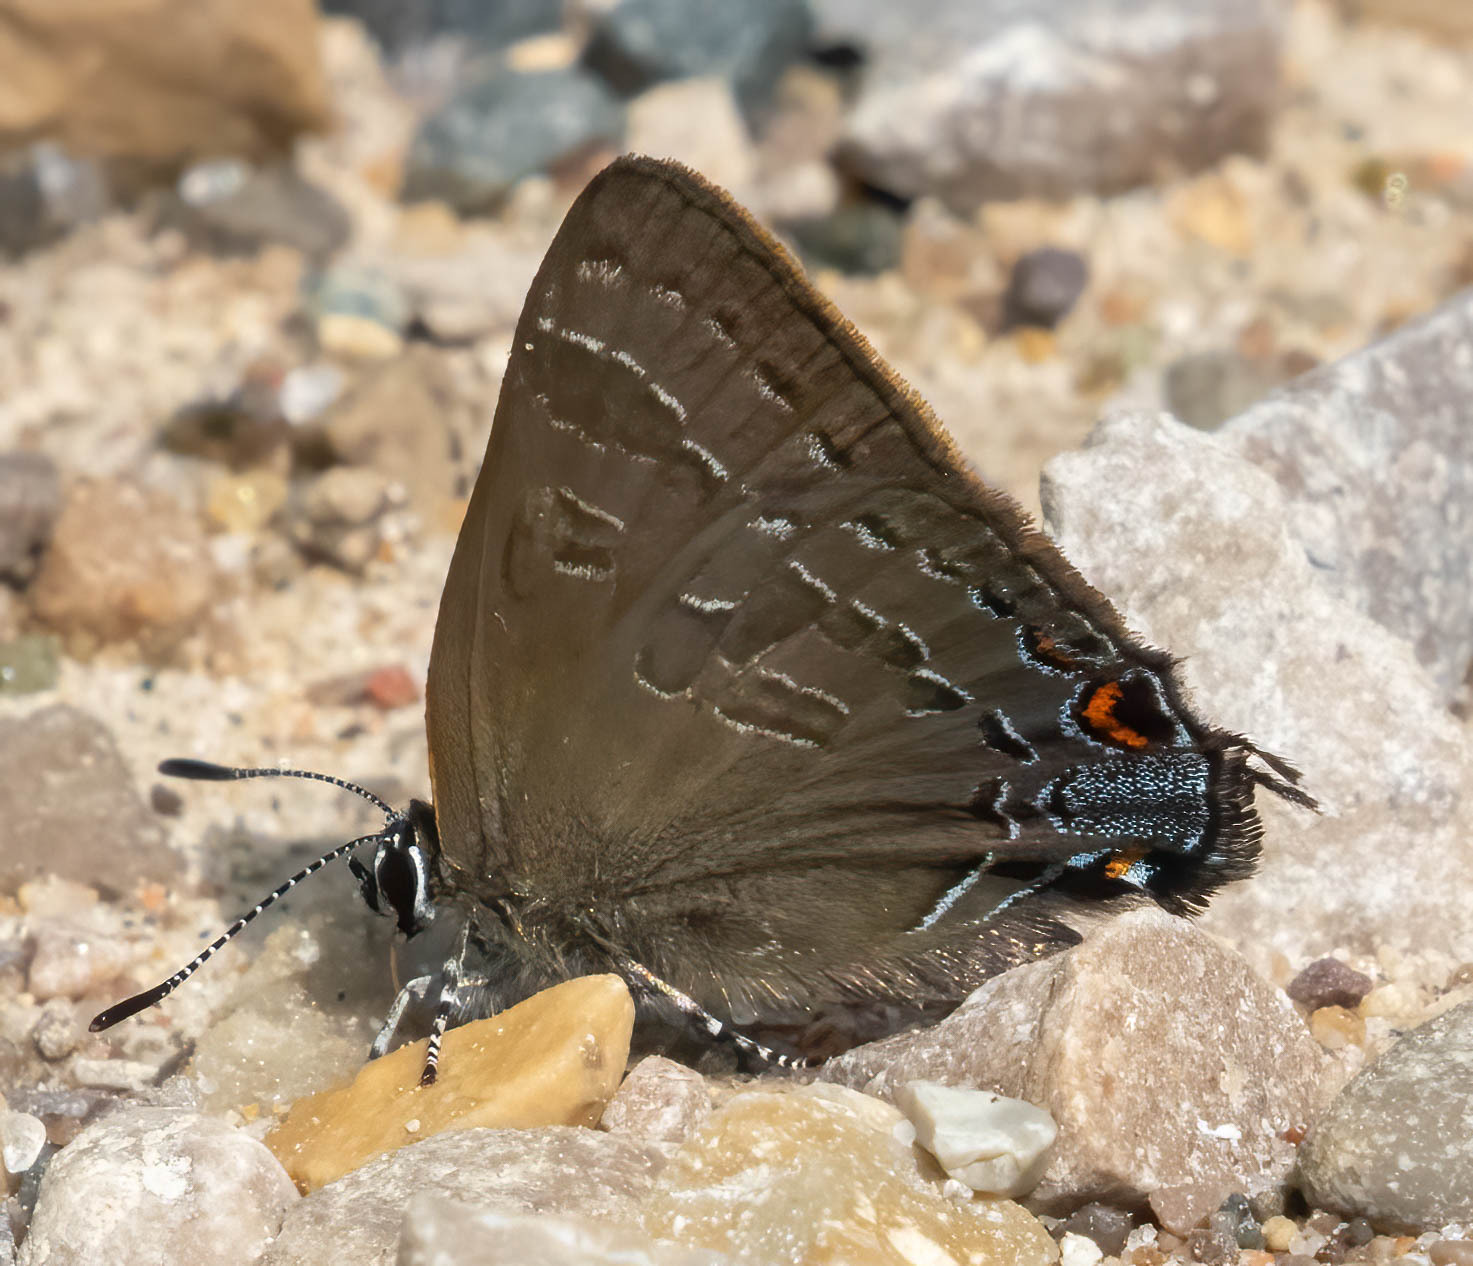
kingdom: Animalia
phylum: Arthropoda
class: Insecta
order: Lepidoptera
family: Lycaenidae
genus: Strymon
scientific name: Strymon caryaevorus
